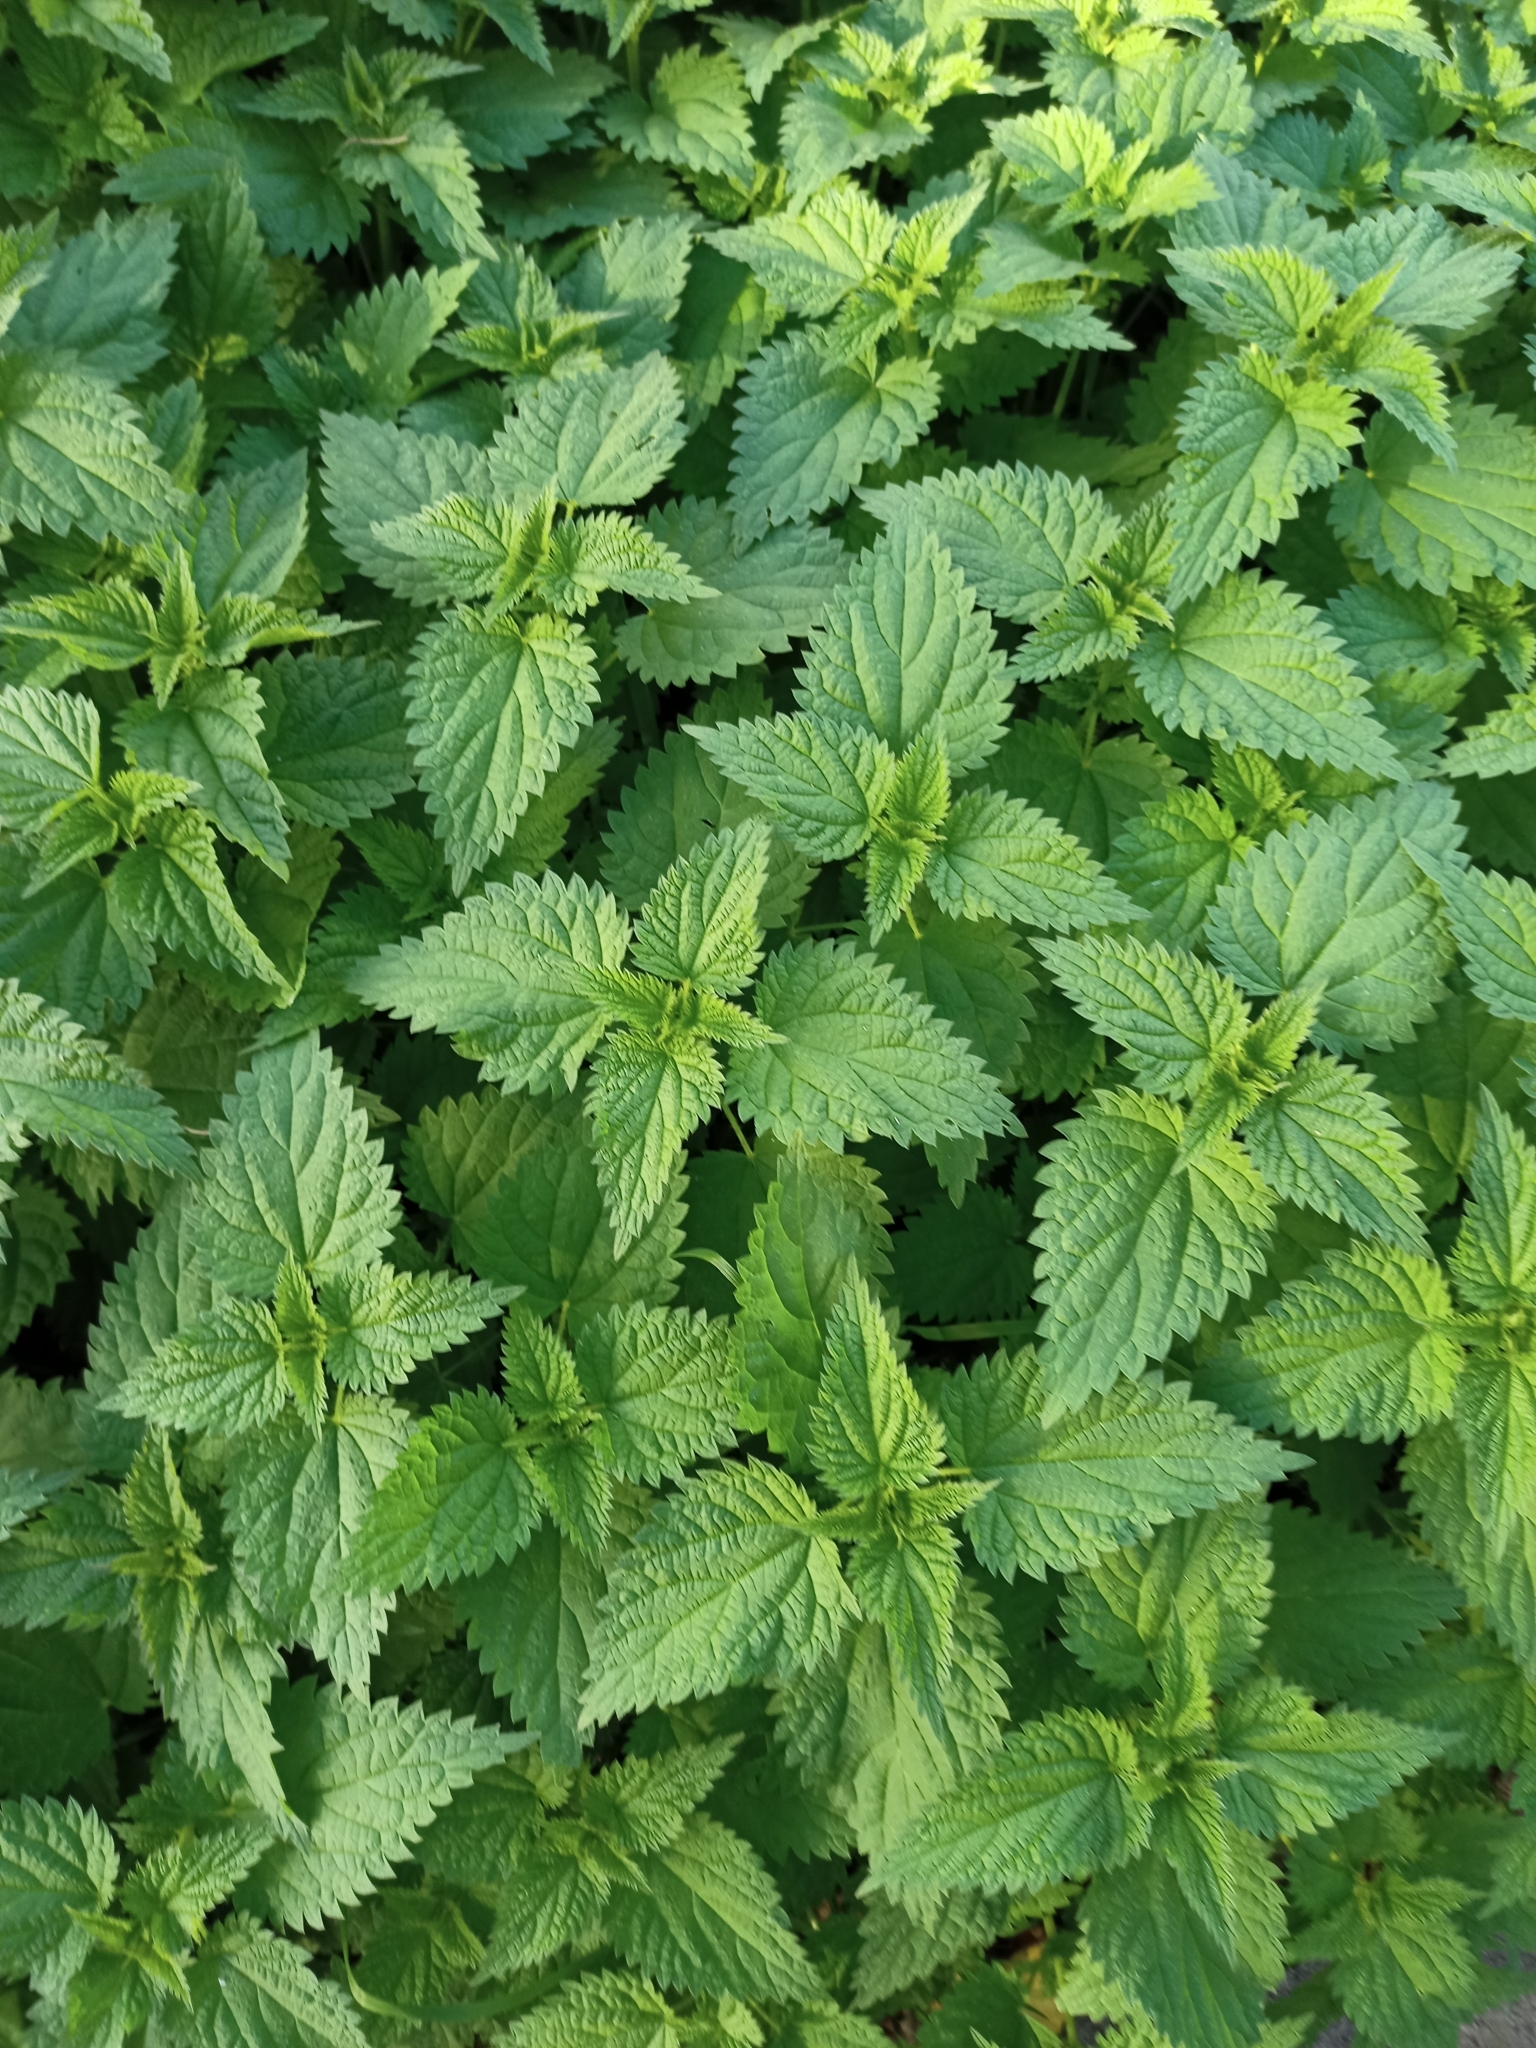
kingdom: Plantae
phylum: Tracheophyta
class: Magnoliopsida
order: Rosales
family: Urticaceae
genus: Urtica
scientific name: Urtica dioica
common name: Common nettle
